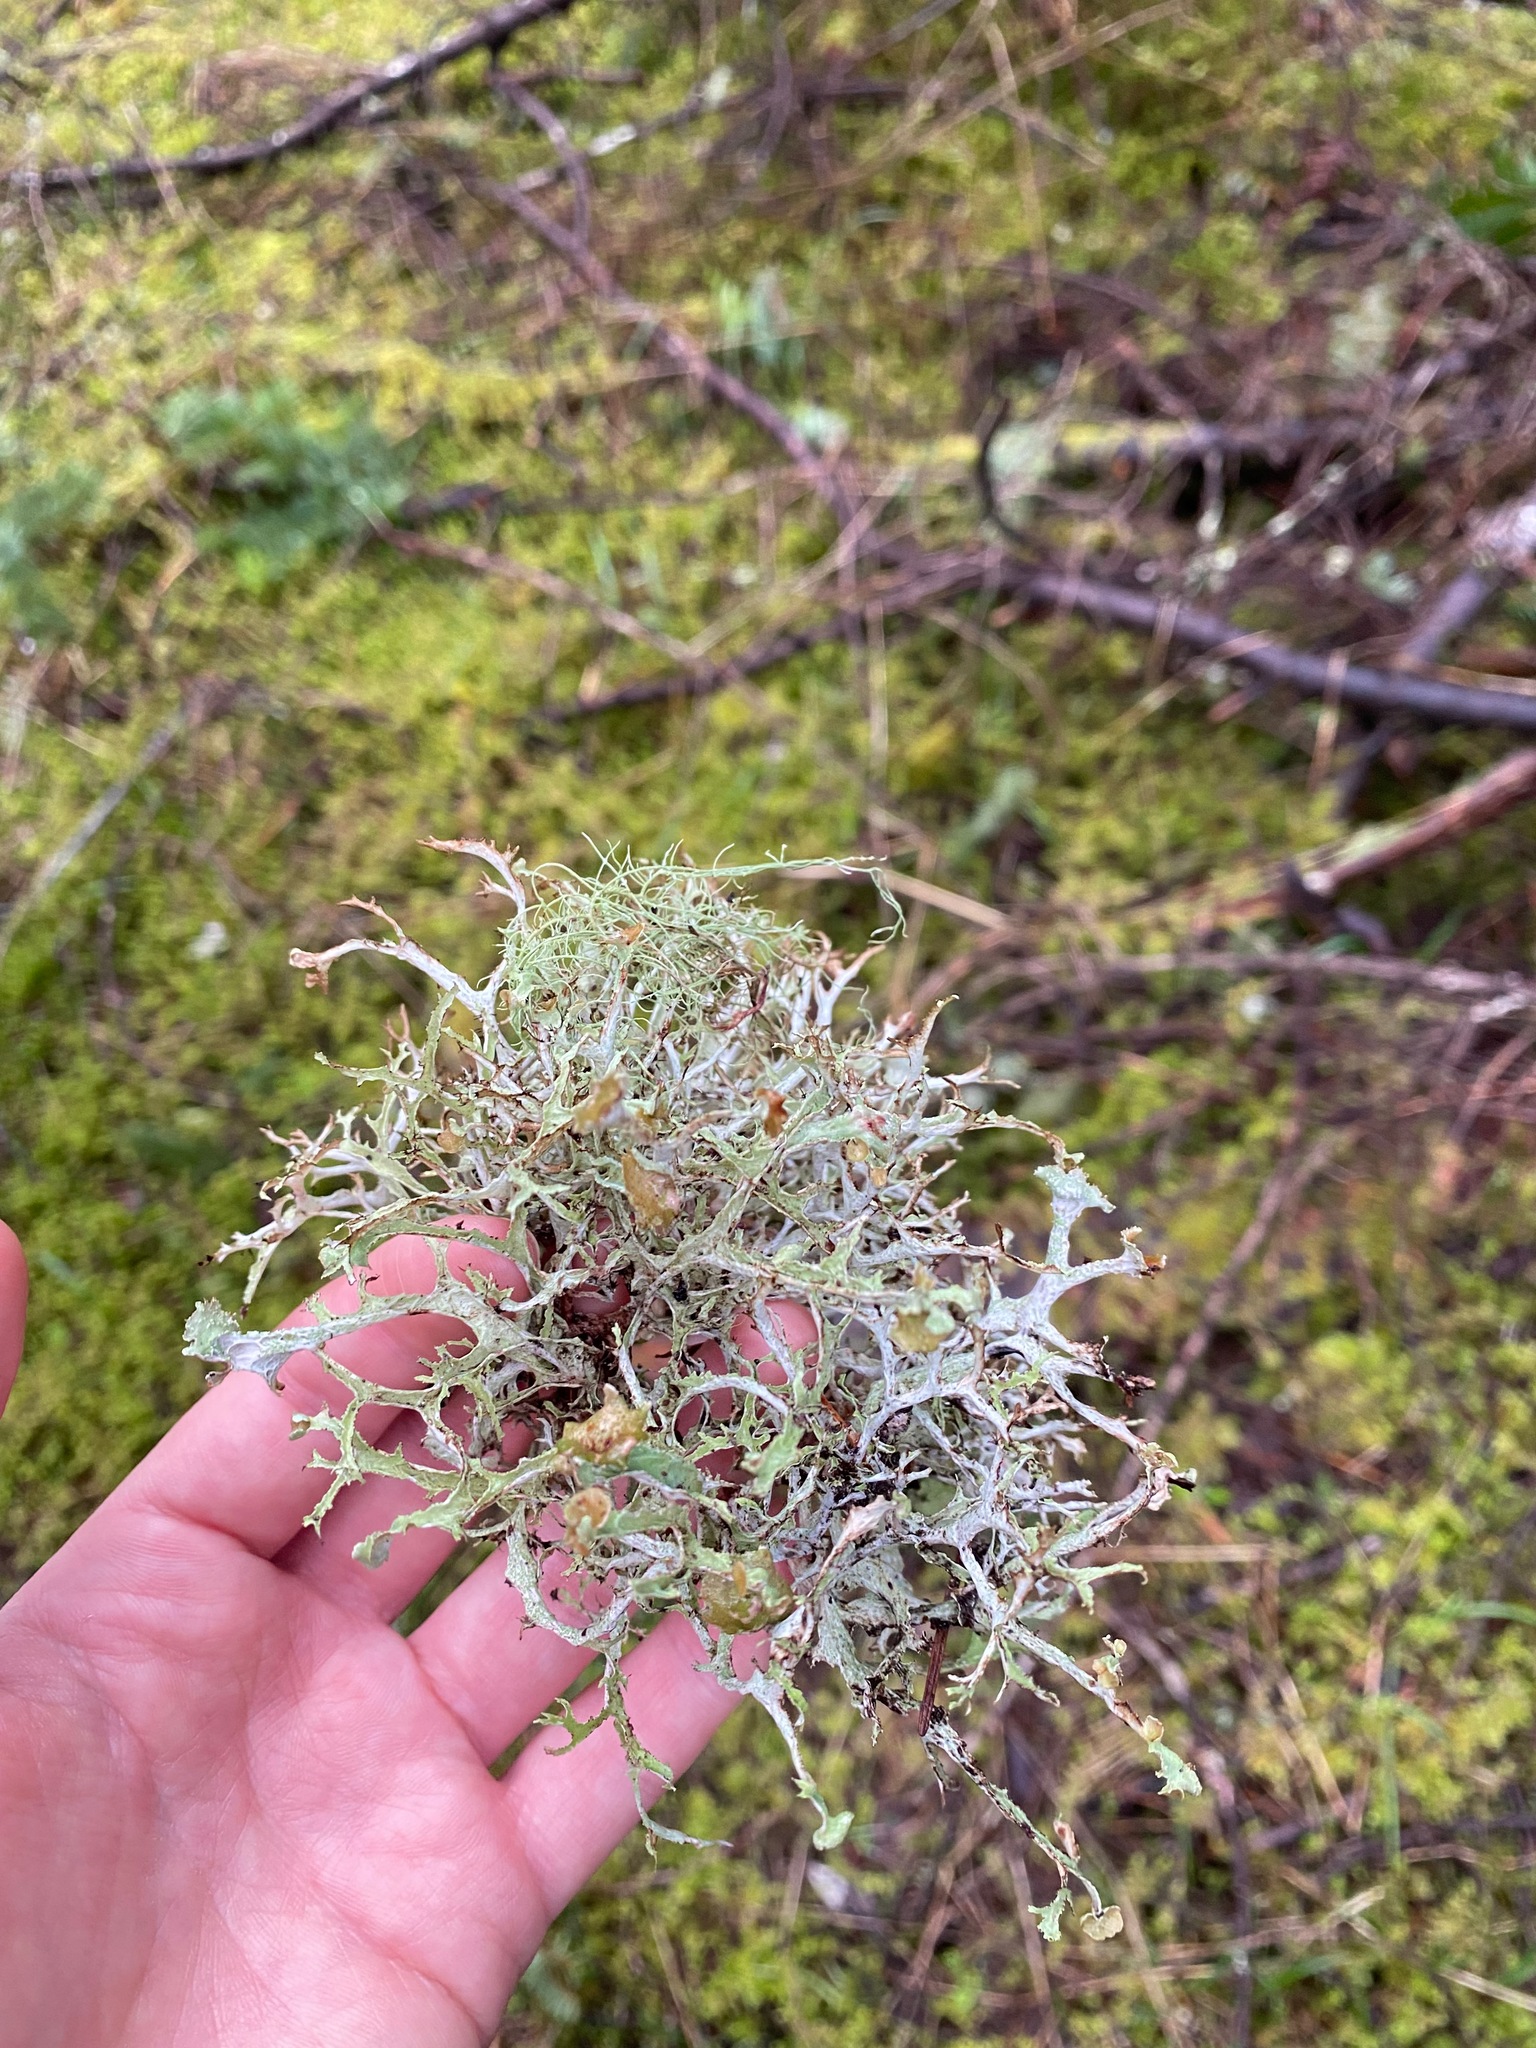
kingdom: Fungi
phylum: Ascomycota
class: Lecanoromycetes
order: Lecanorales
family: Parmeliaceae
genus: Platismatia
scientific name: Platismatia herrei
